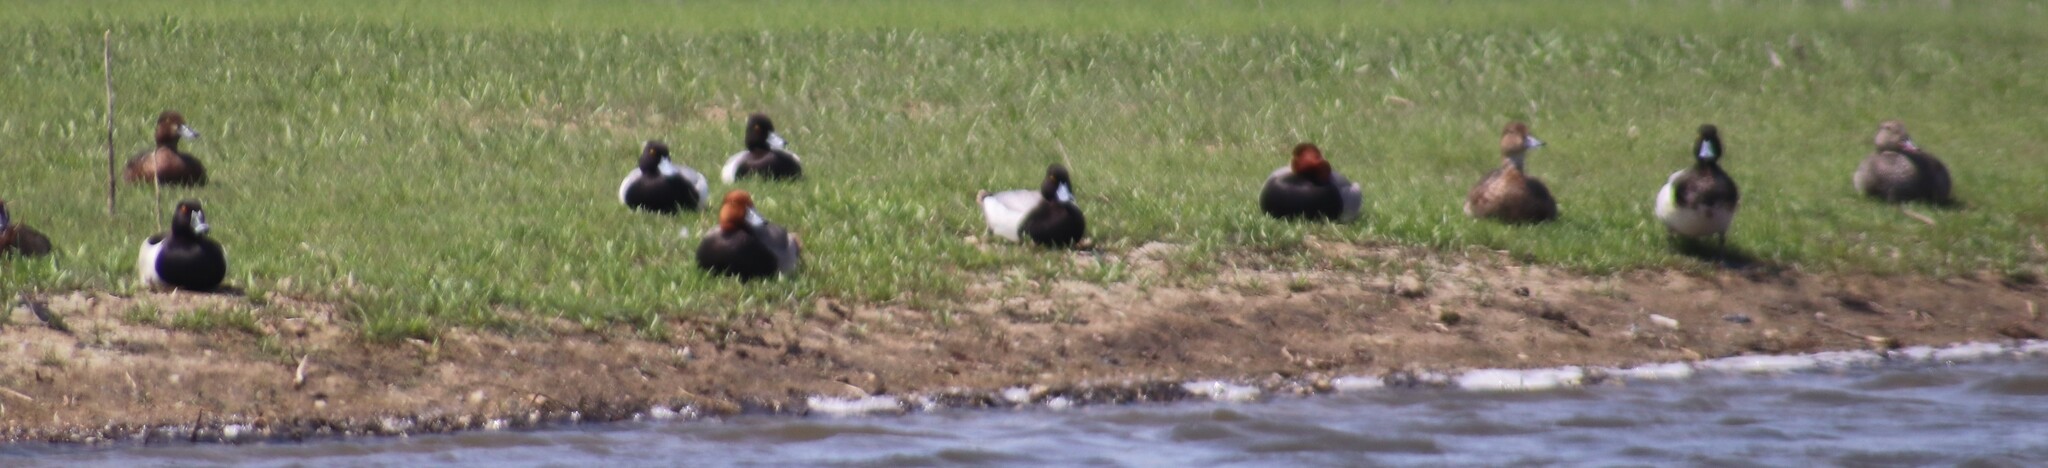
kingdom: Animalia
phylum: Chordata
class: Aves
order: Anseriformes
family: Anatidae
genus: Aythya
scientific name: Aythya affinis
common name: Lesser scaup
